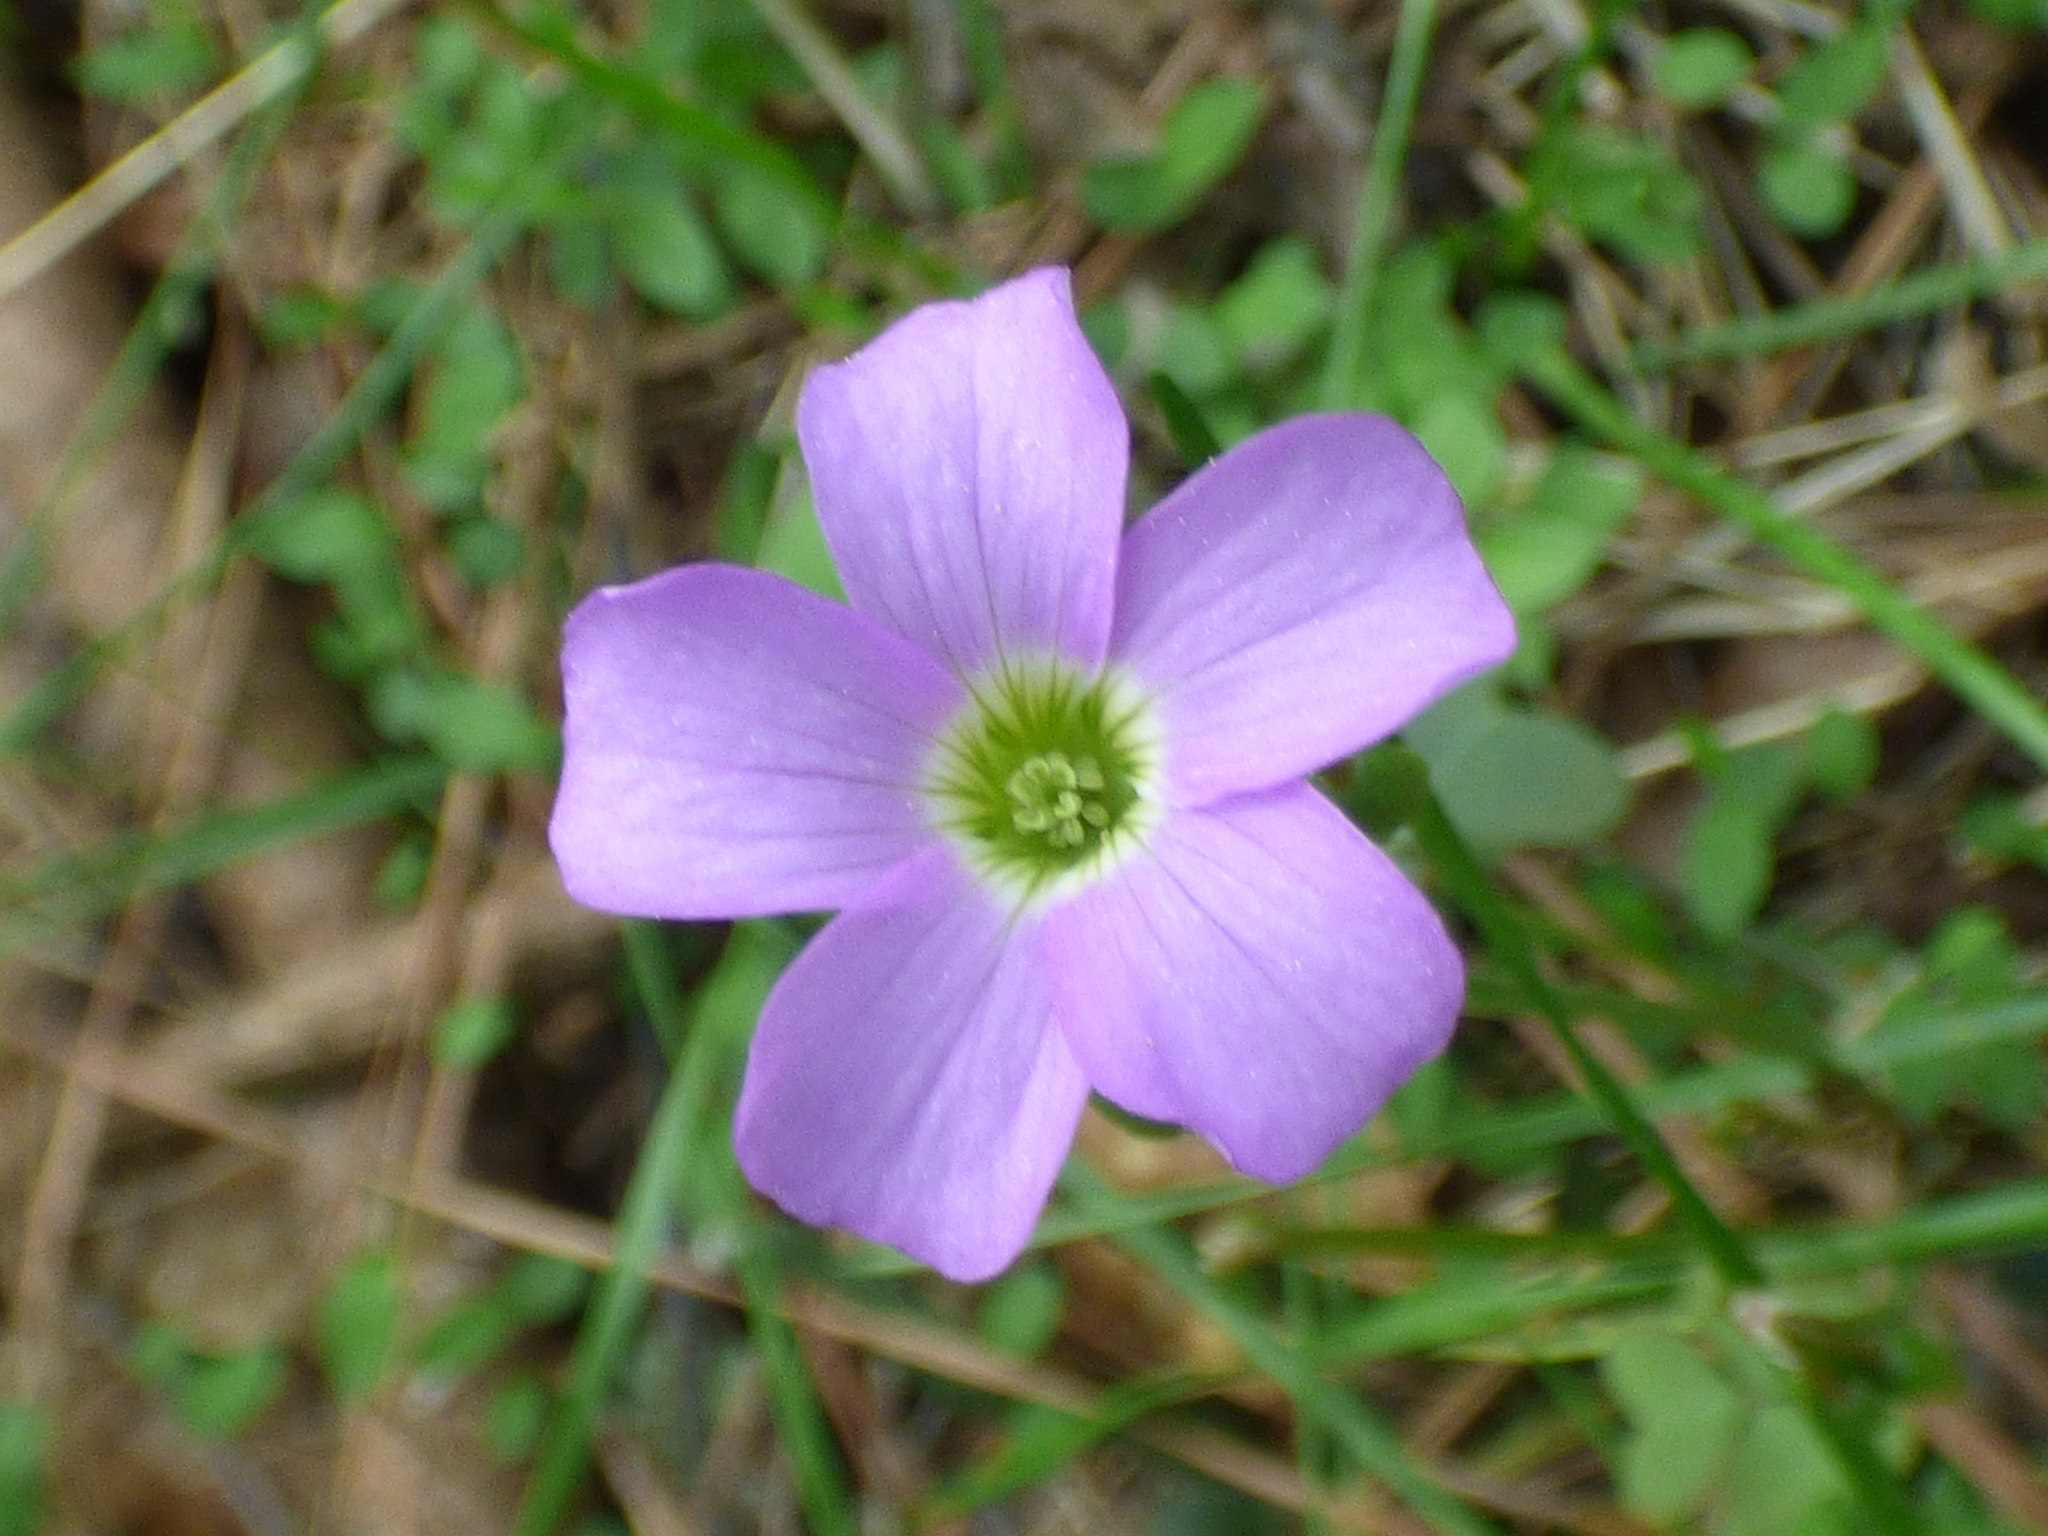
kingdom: Plantae
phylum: Tracheophyta
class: Magnoliopsida
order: Oxalidales
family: Oxalidaceae
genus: Oxalis
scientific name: Oxalis violacea
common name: Violet wood-sorrel
